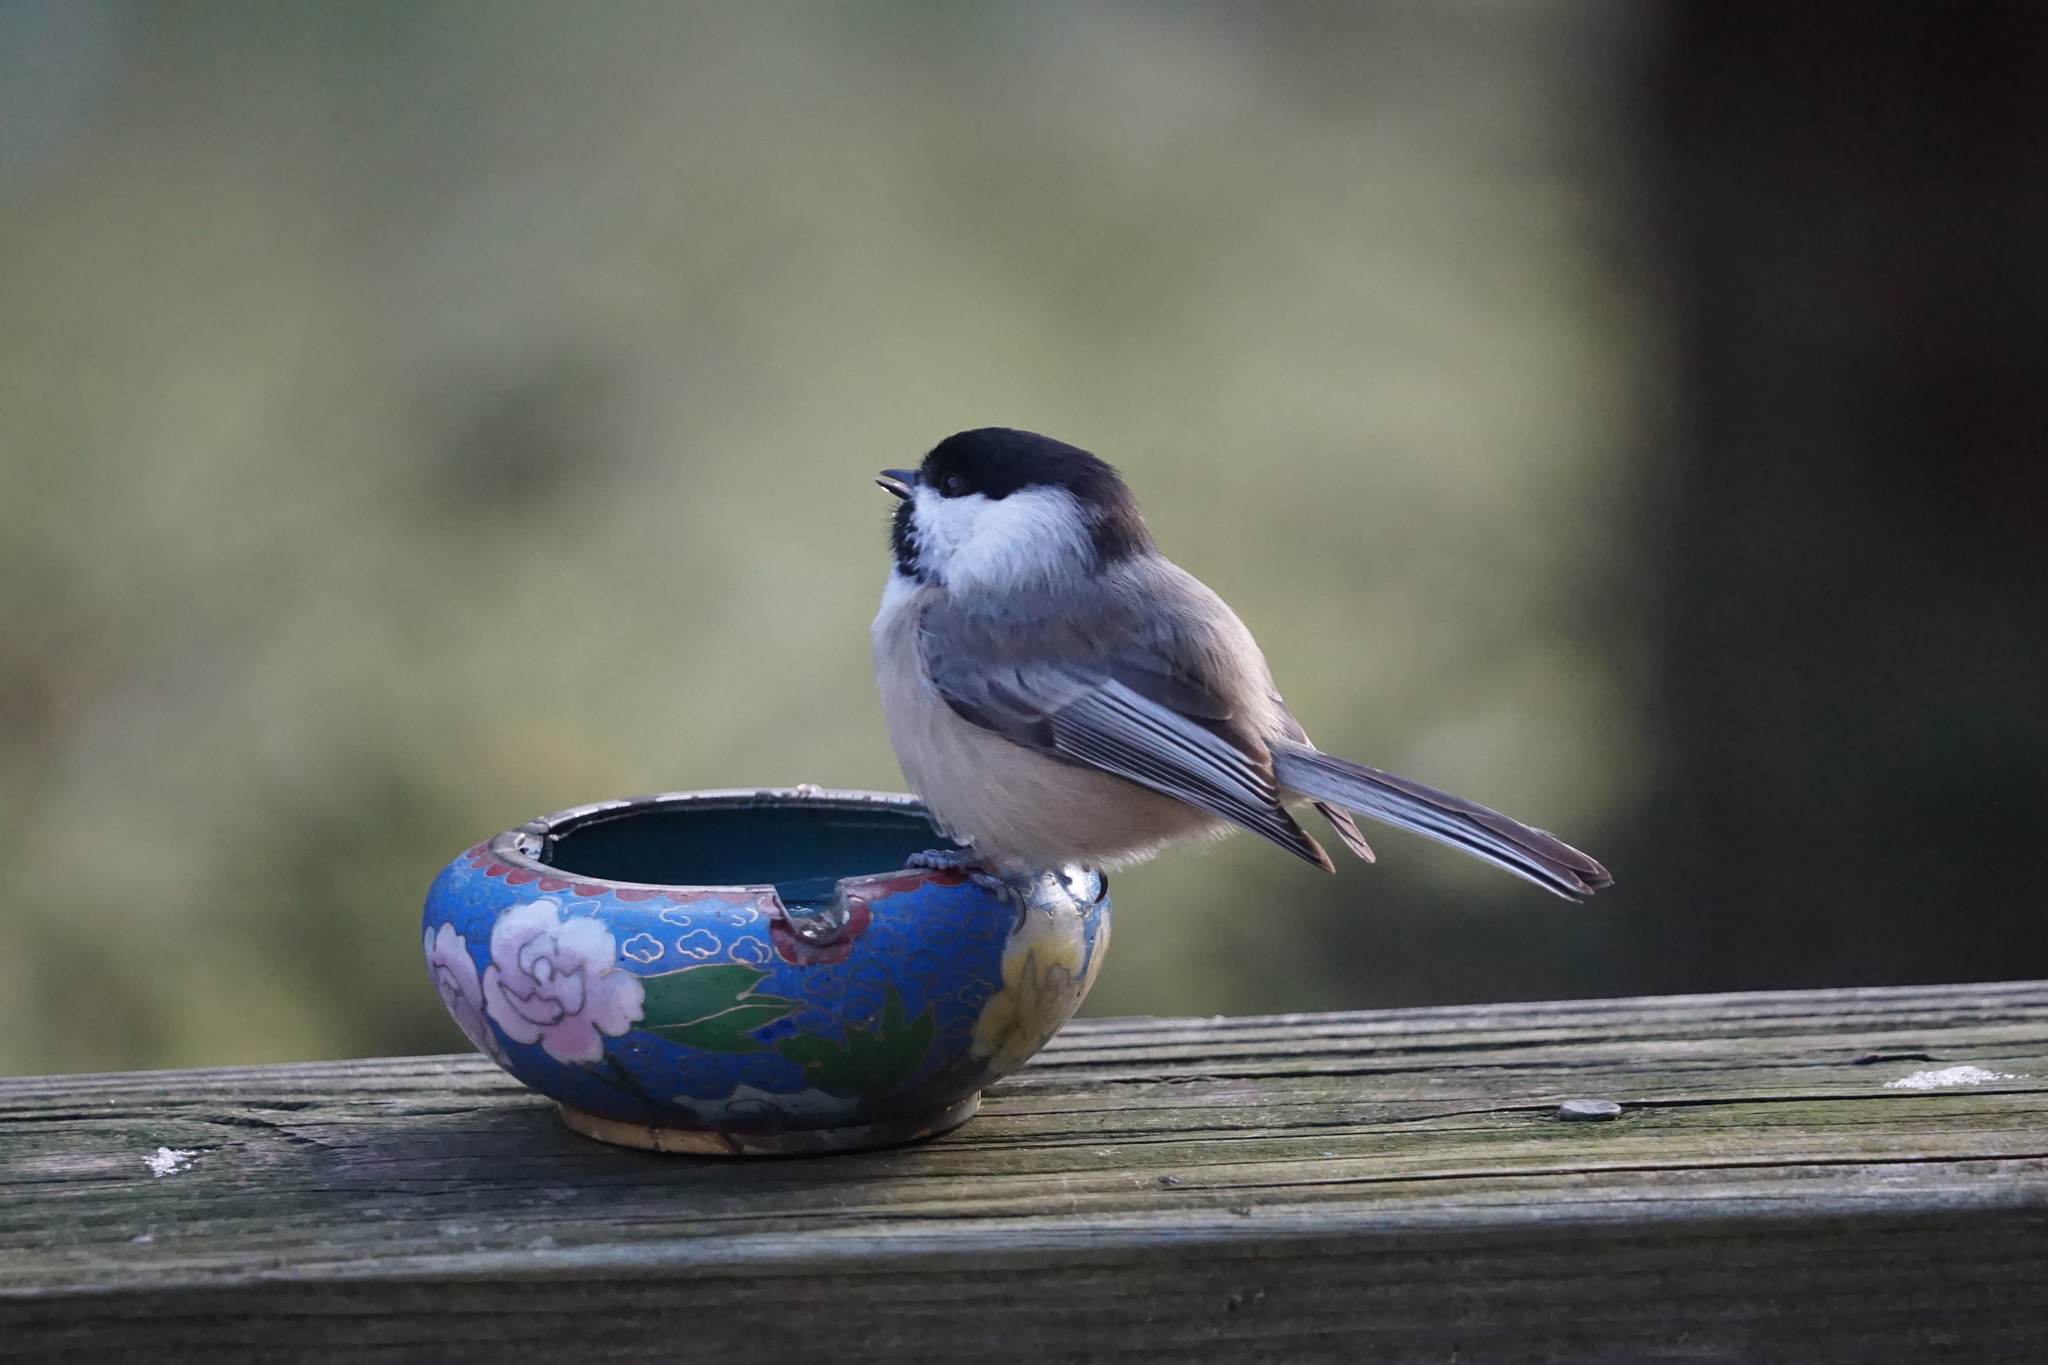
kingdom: Animalia
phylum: Chordata
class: Aves
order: Passeriformes
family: Paridae
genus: Poecile
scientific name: Poecile atricapillus
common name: Black-capped chickadee
